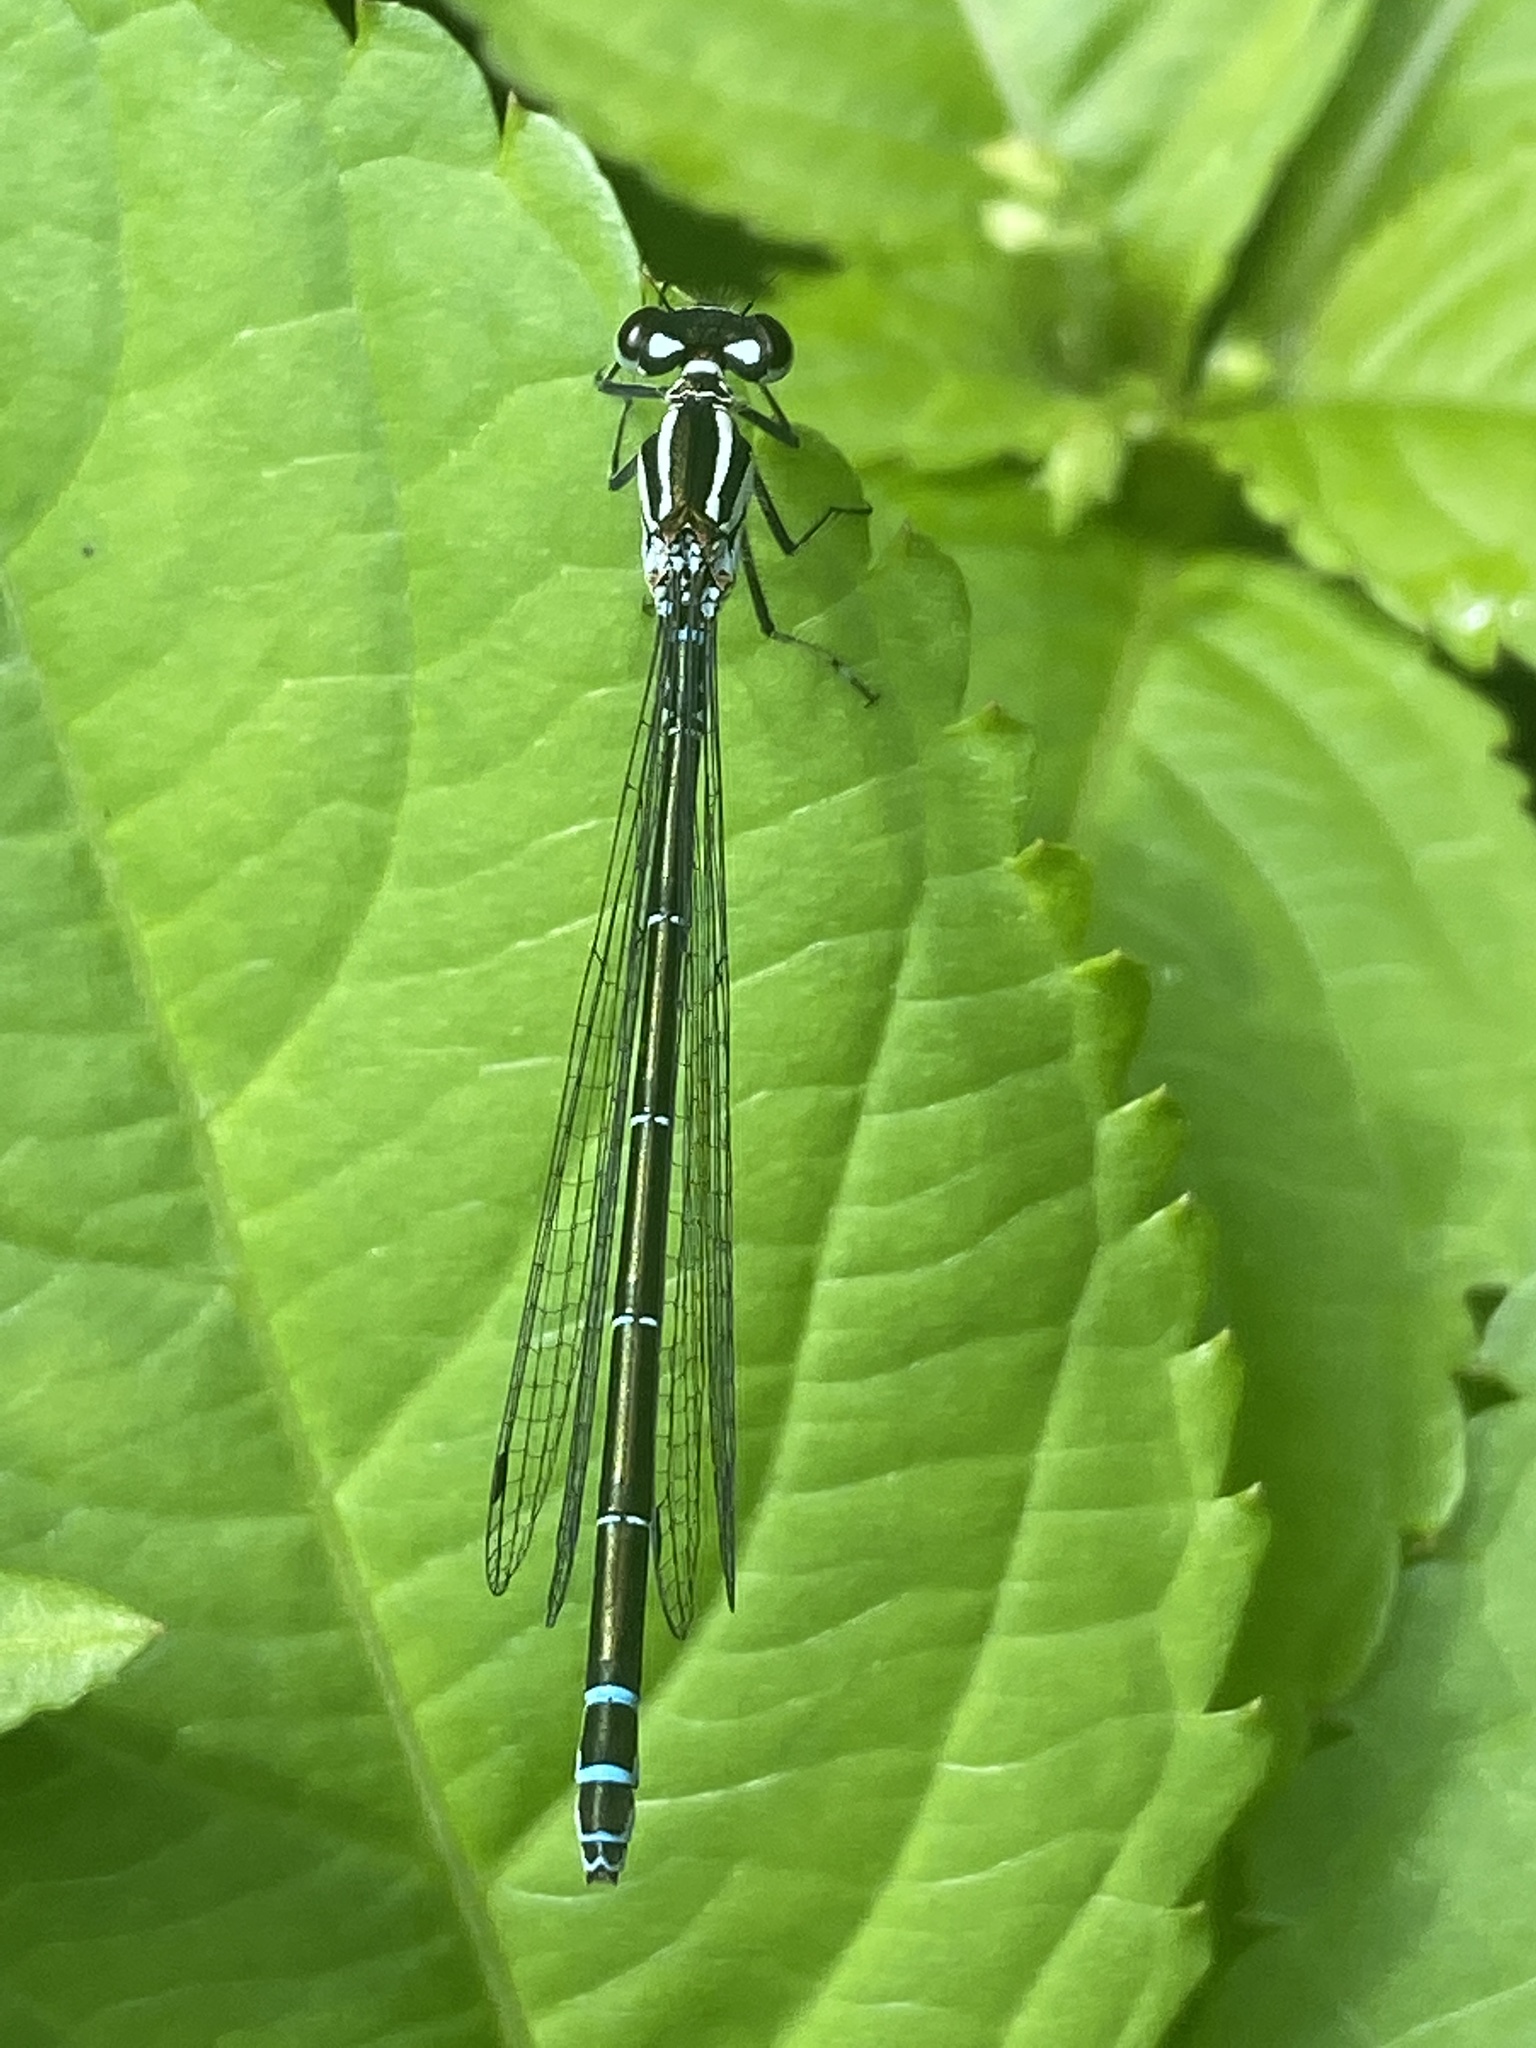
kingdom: Animalia
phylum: Arthropoda
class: Insecta
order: Odonata
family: Coenagrionidae
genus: Coenagrion
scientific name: Coenagrion puella
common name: Azure damselfly
